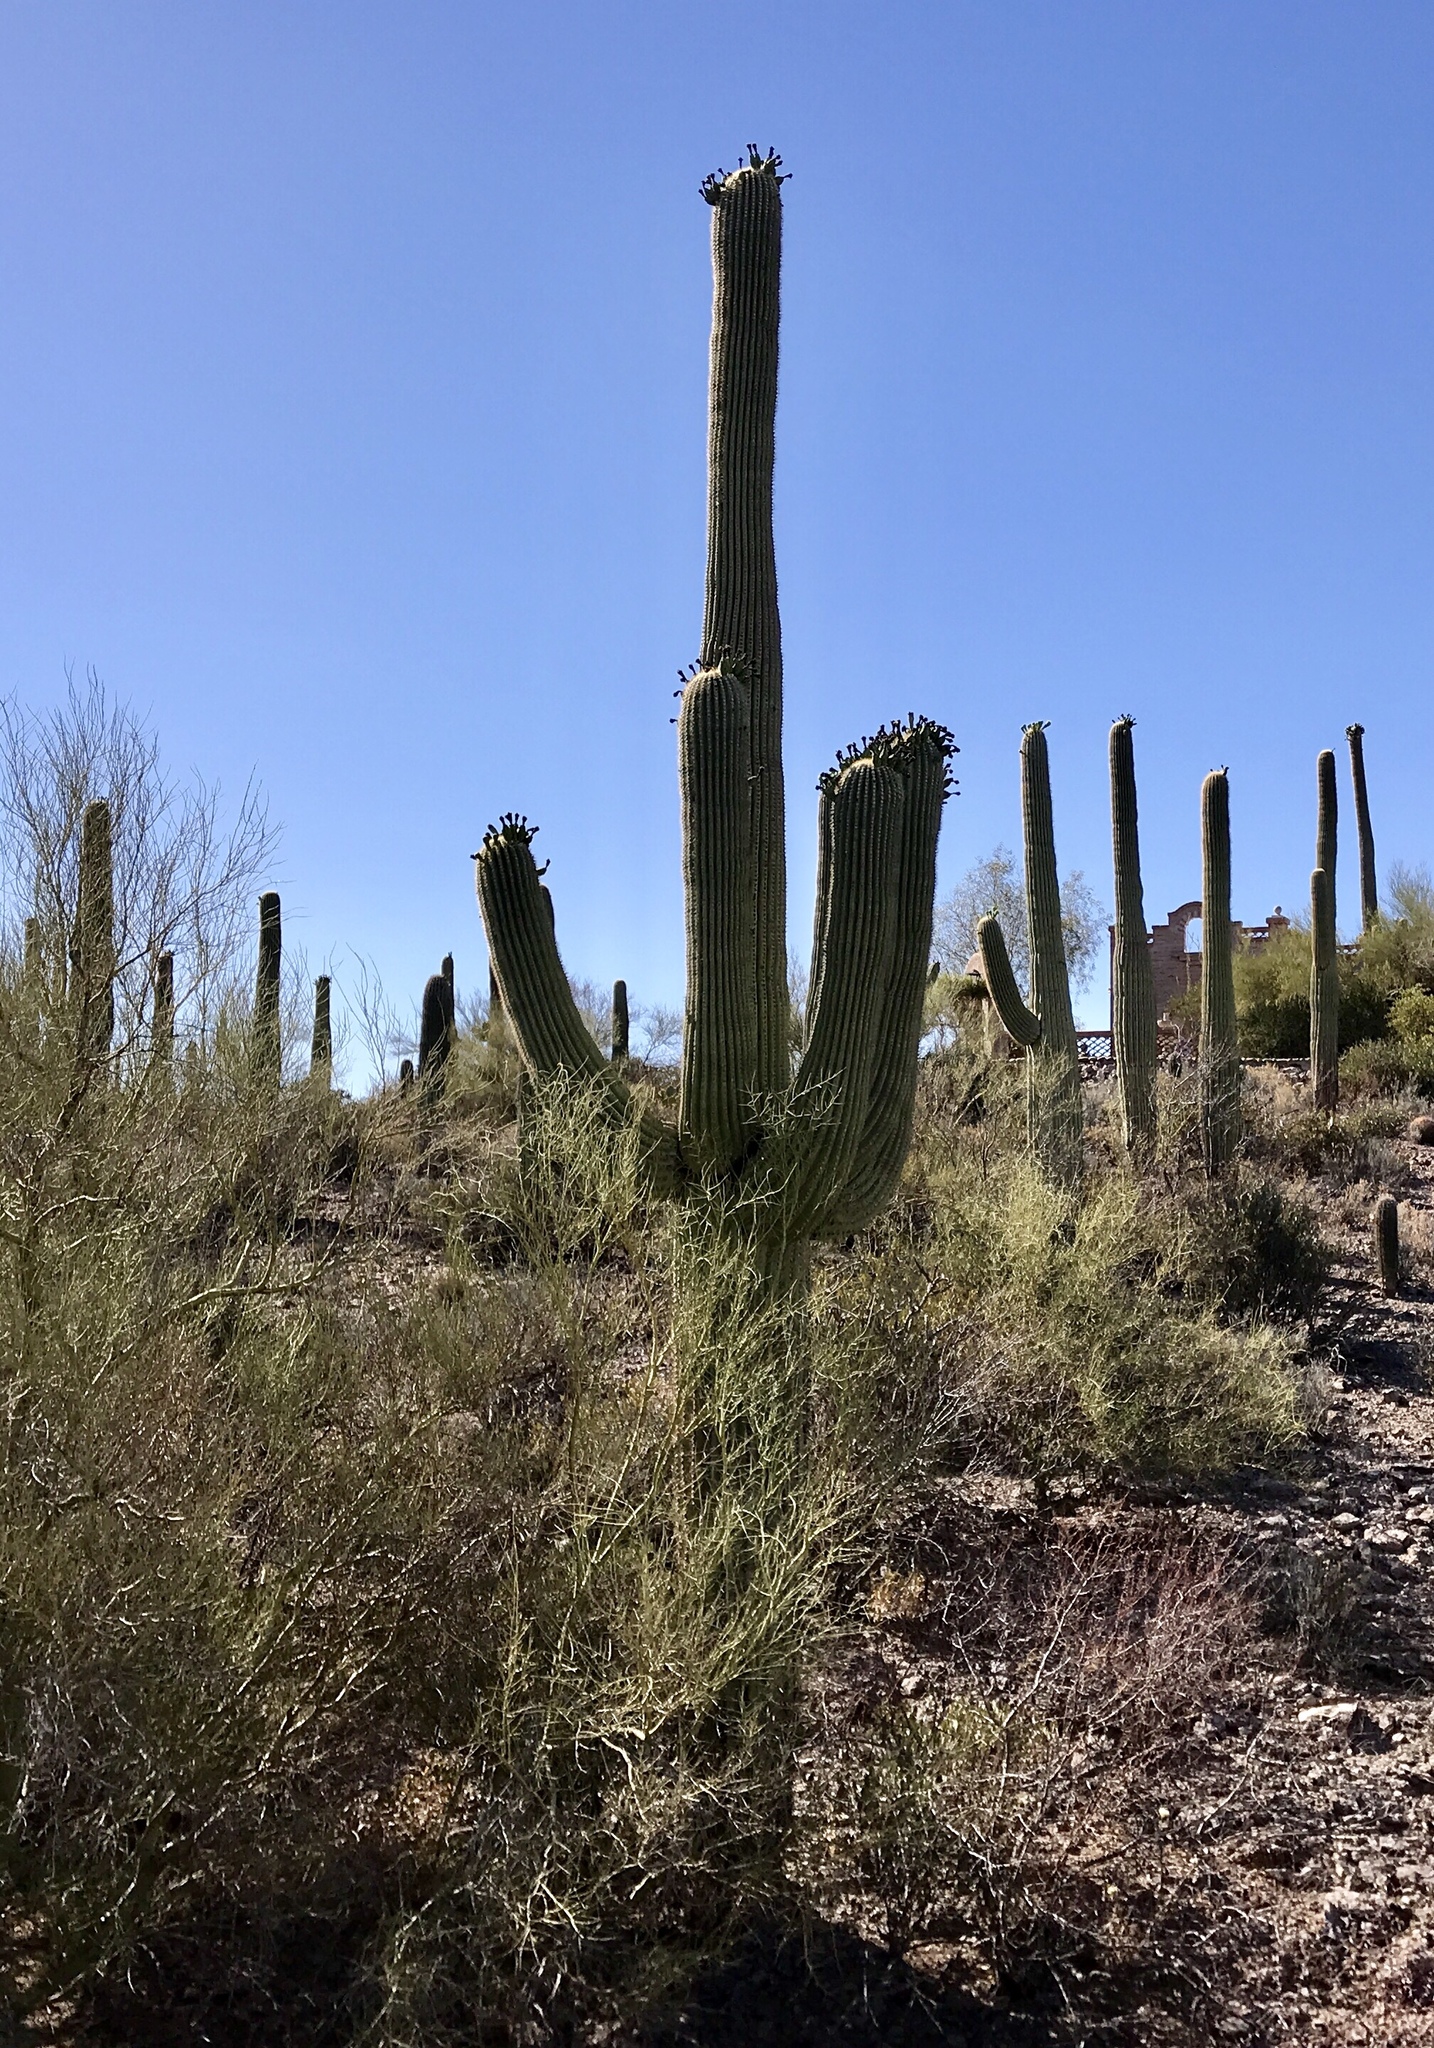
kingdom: Plantae
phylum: Tracheophyta
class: Magnoliopsida
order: Caryophyllales
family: Cactaceae
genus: Carnegiea
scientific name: Carnegiea gigantea
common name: Saguaro
